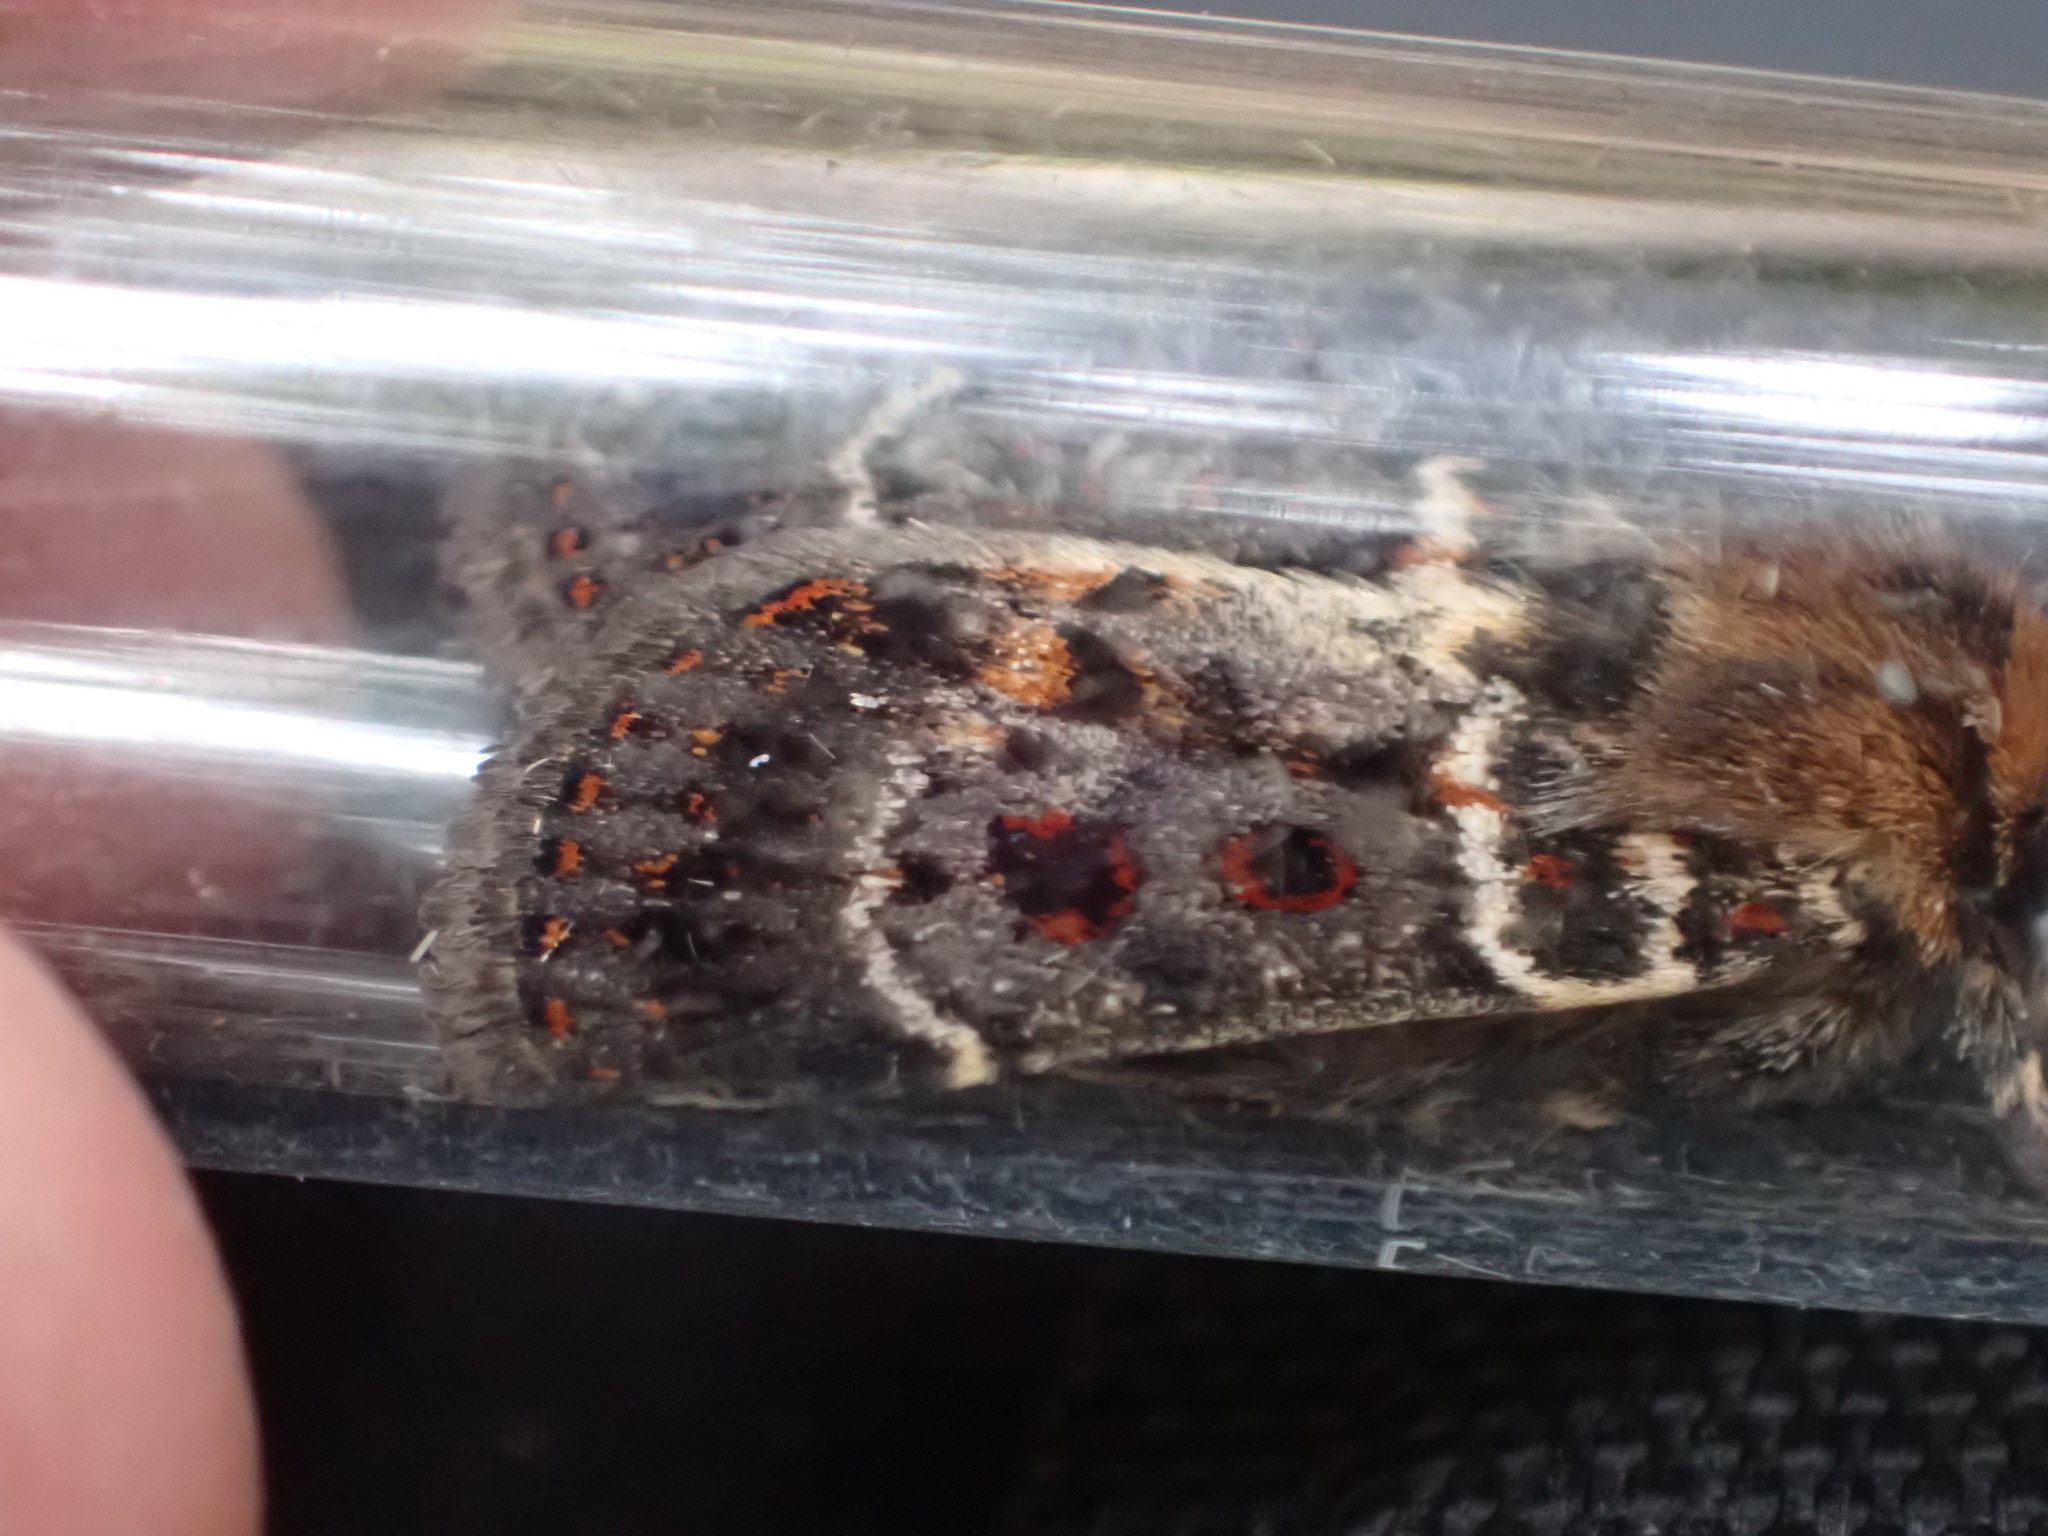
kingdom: Animalia
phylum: Arthropoda
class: Insecta
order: Lepidoptera
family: Noctuidae
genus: Proteuxoa
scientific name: Proteuxoa sanguinipuncta
